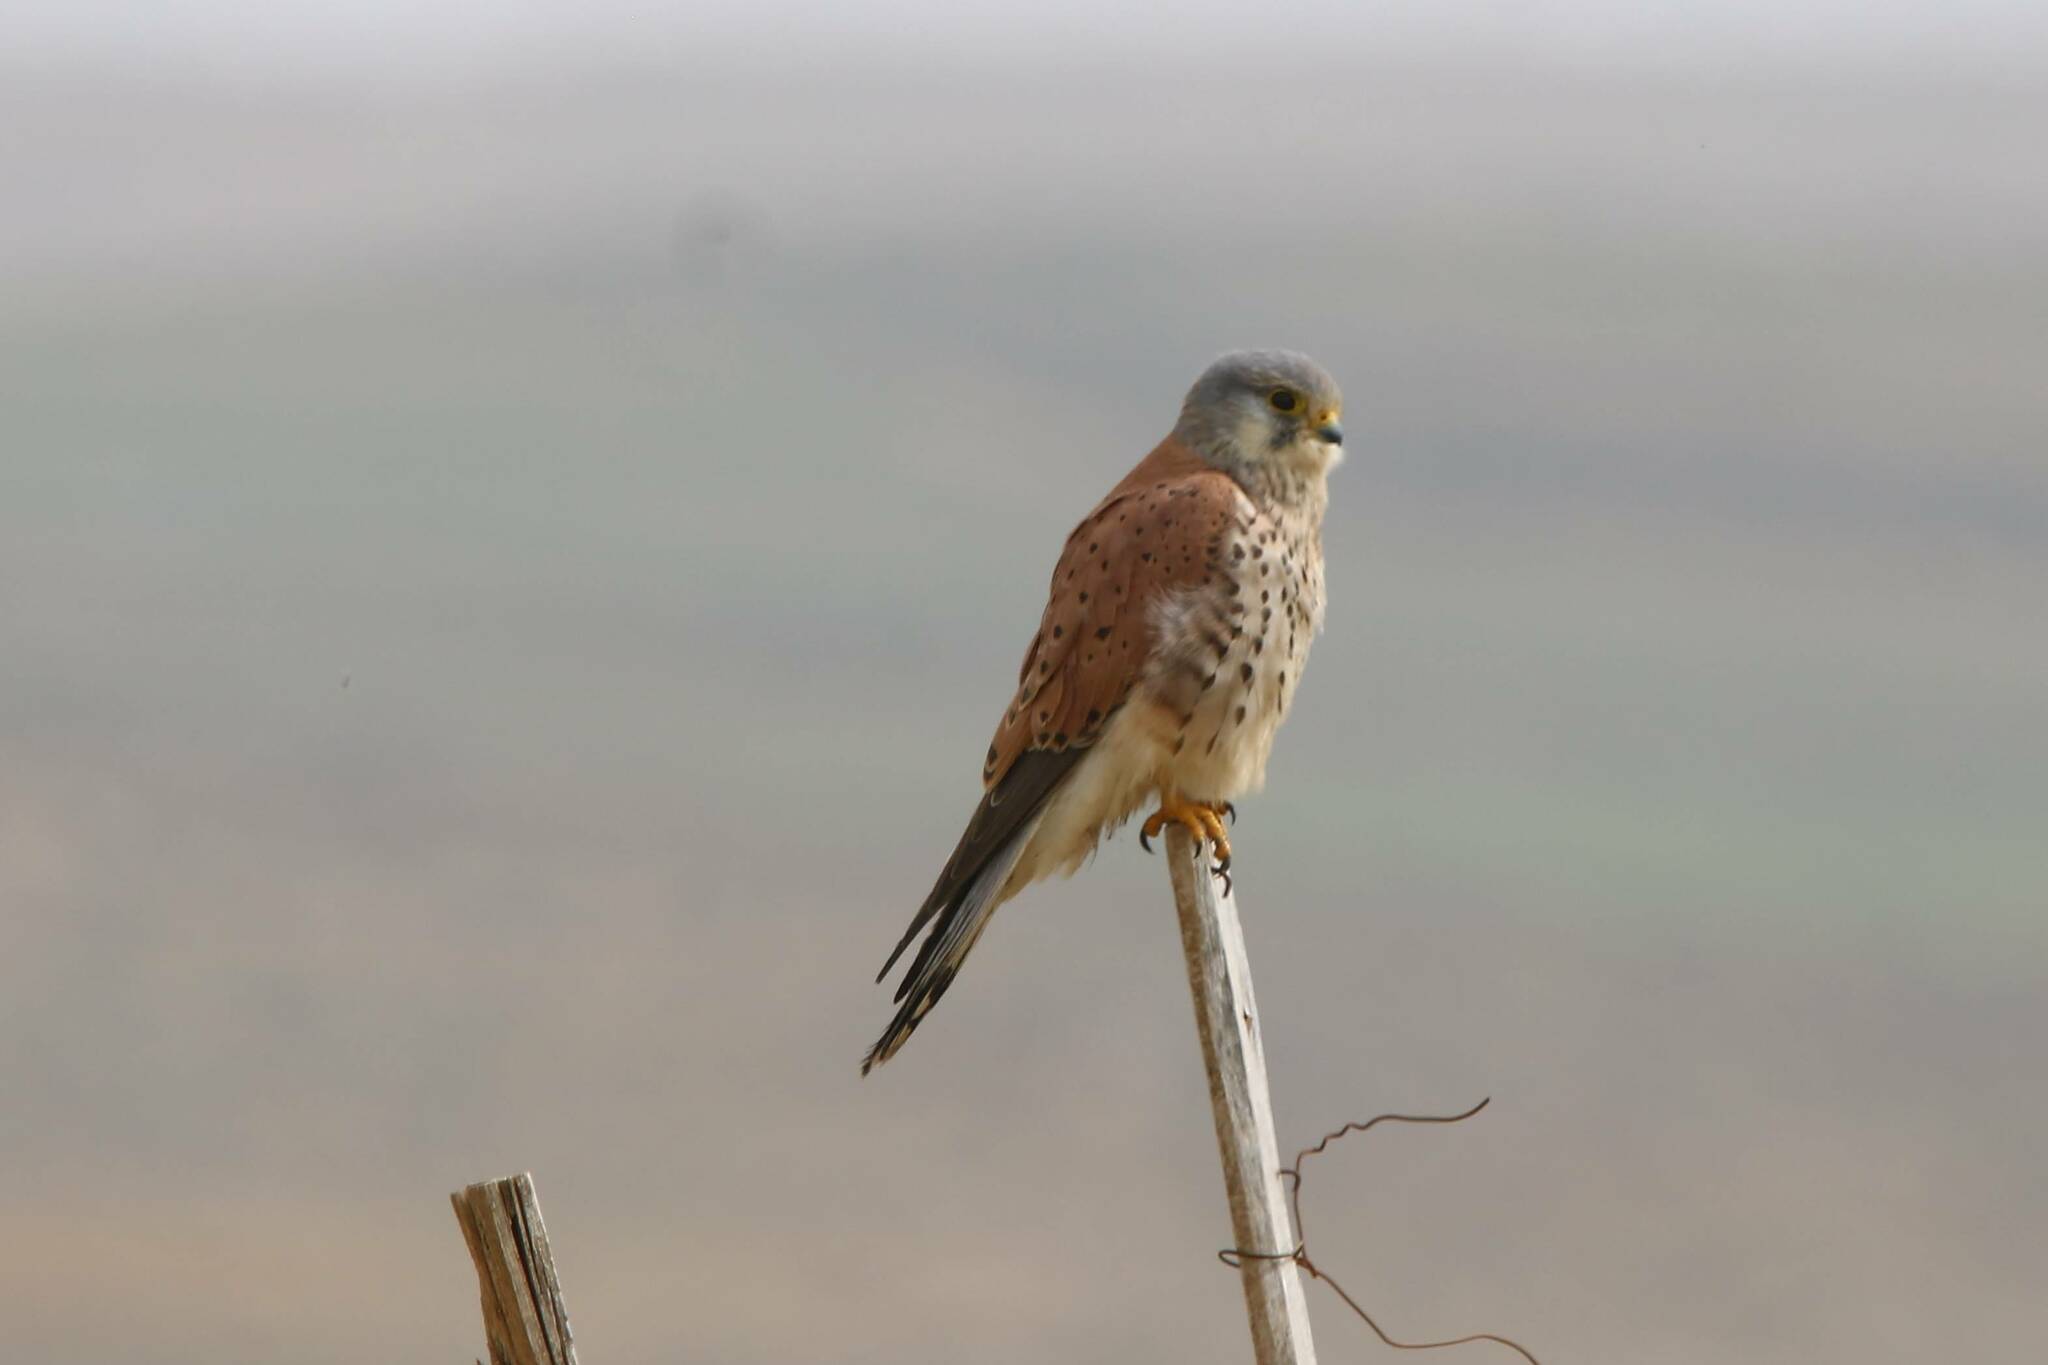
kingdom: Animalia
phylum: Chordata
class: Aves
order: Falconiformes
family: Falconidae
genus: Falco
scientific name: Falco tinnunculus
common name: Common kestrel
